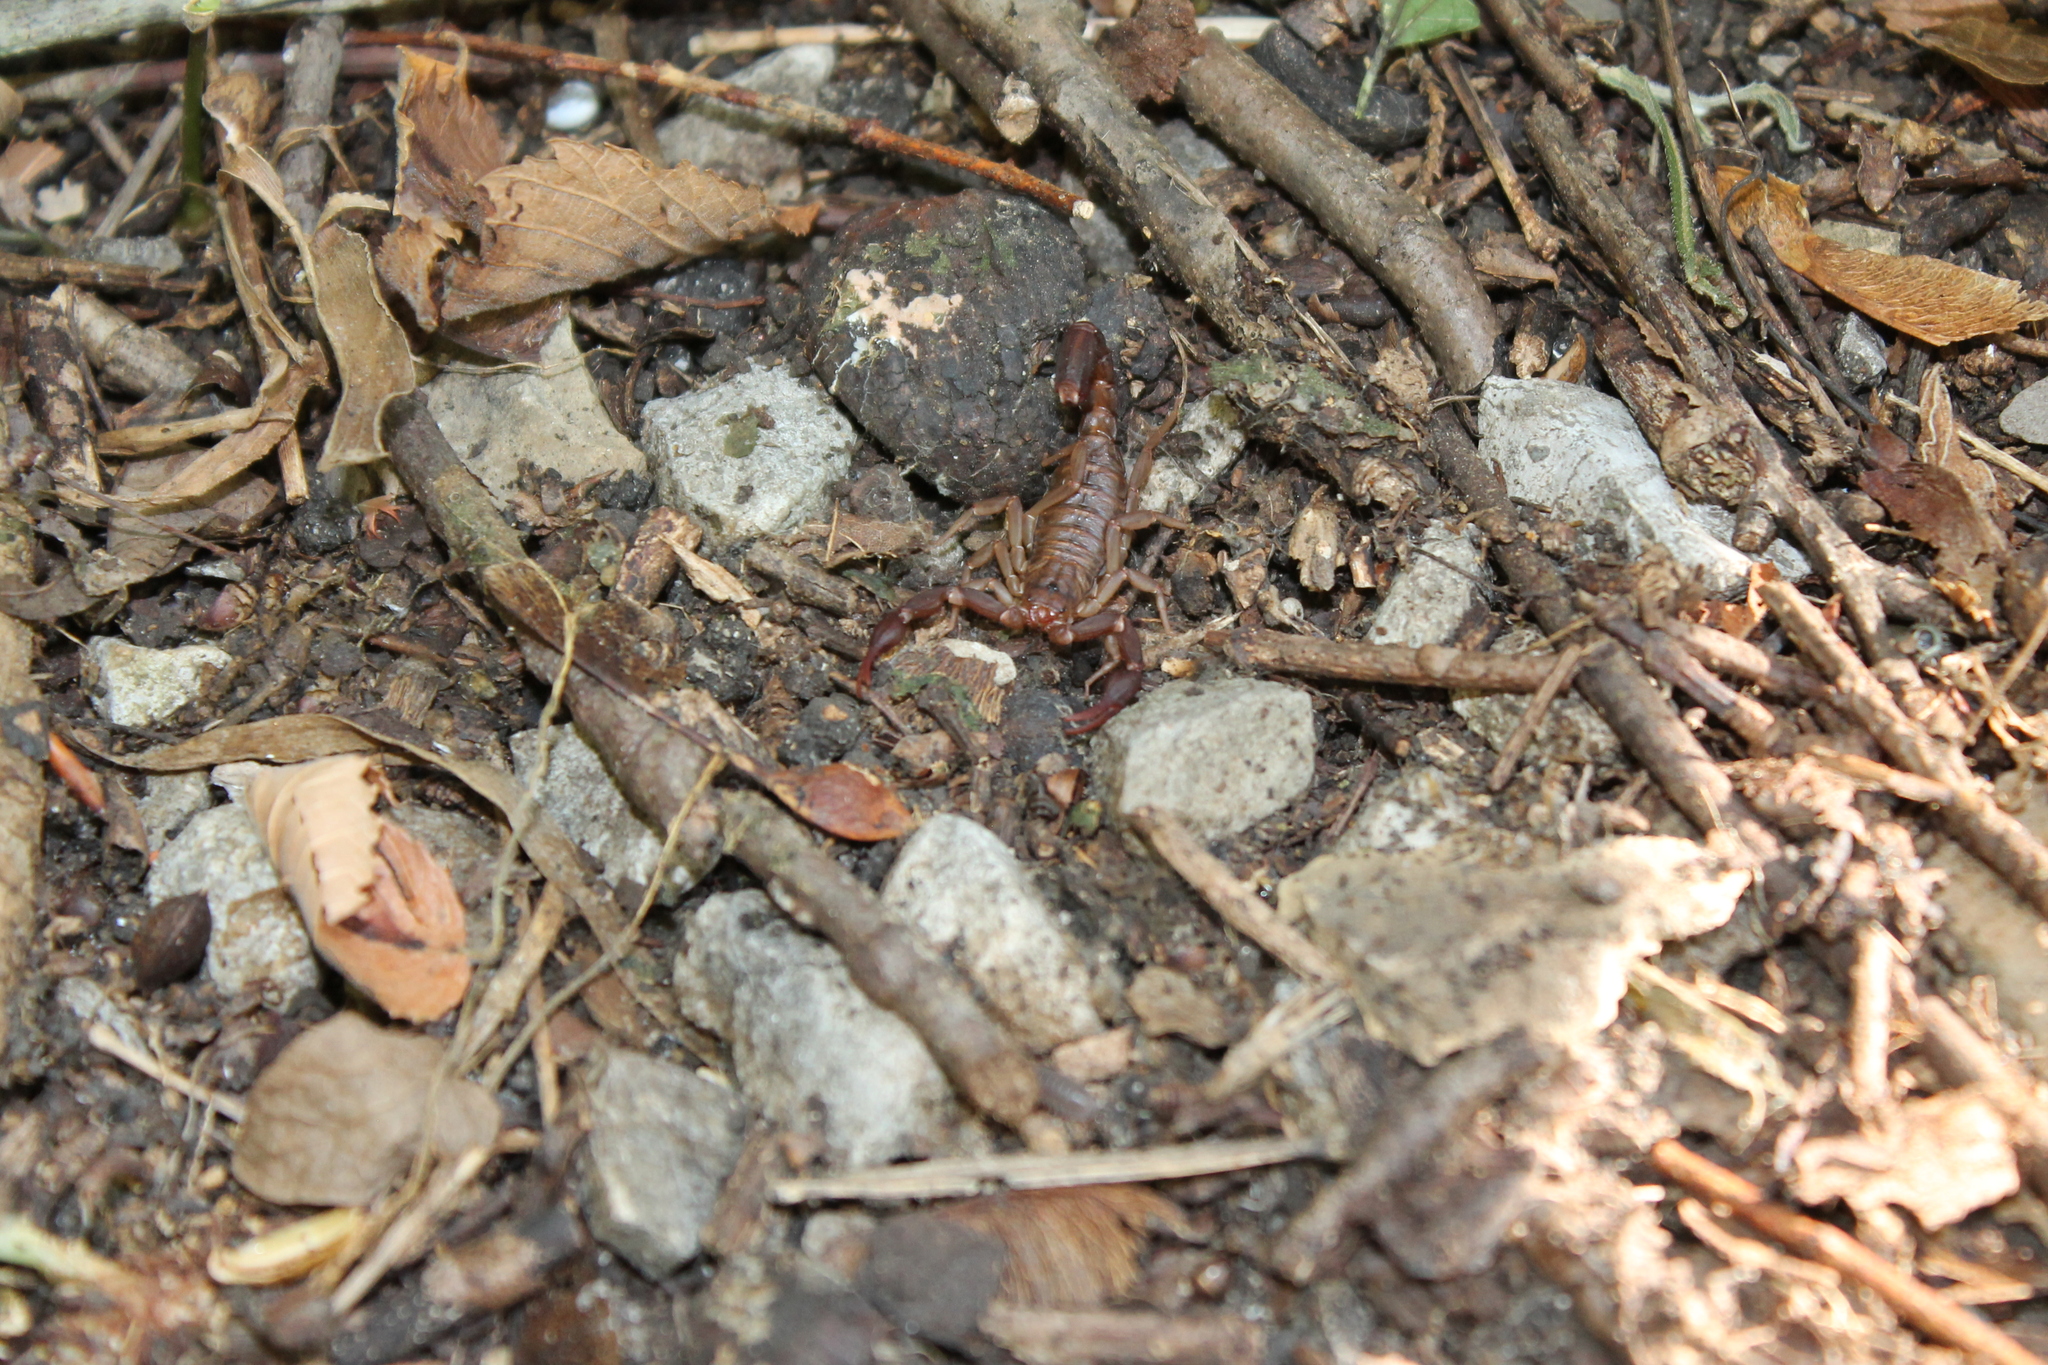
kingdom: Animalia
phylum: Arthropoda
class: Arachnida
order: Scorpiones
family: Vaejovidae
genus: Vaejovis
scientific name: Vaejovis carolinianus
